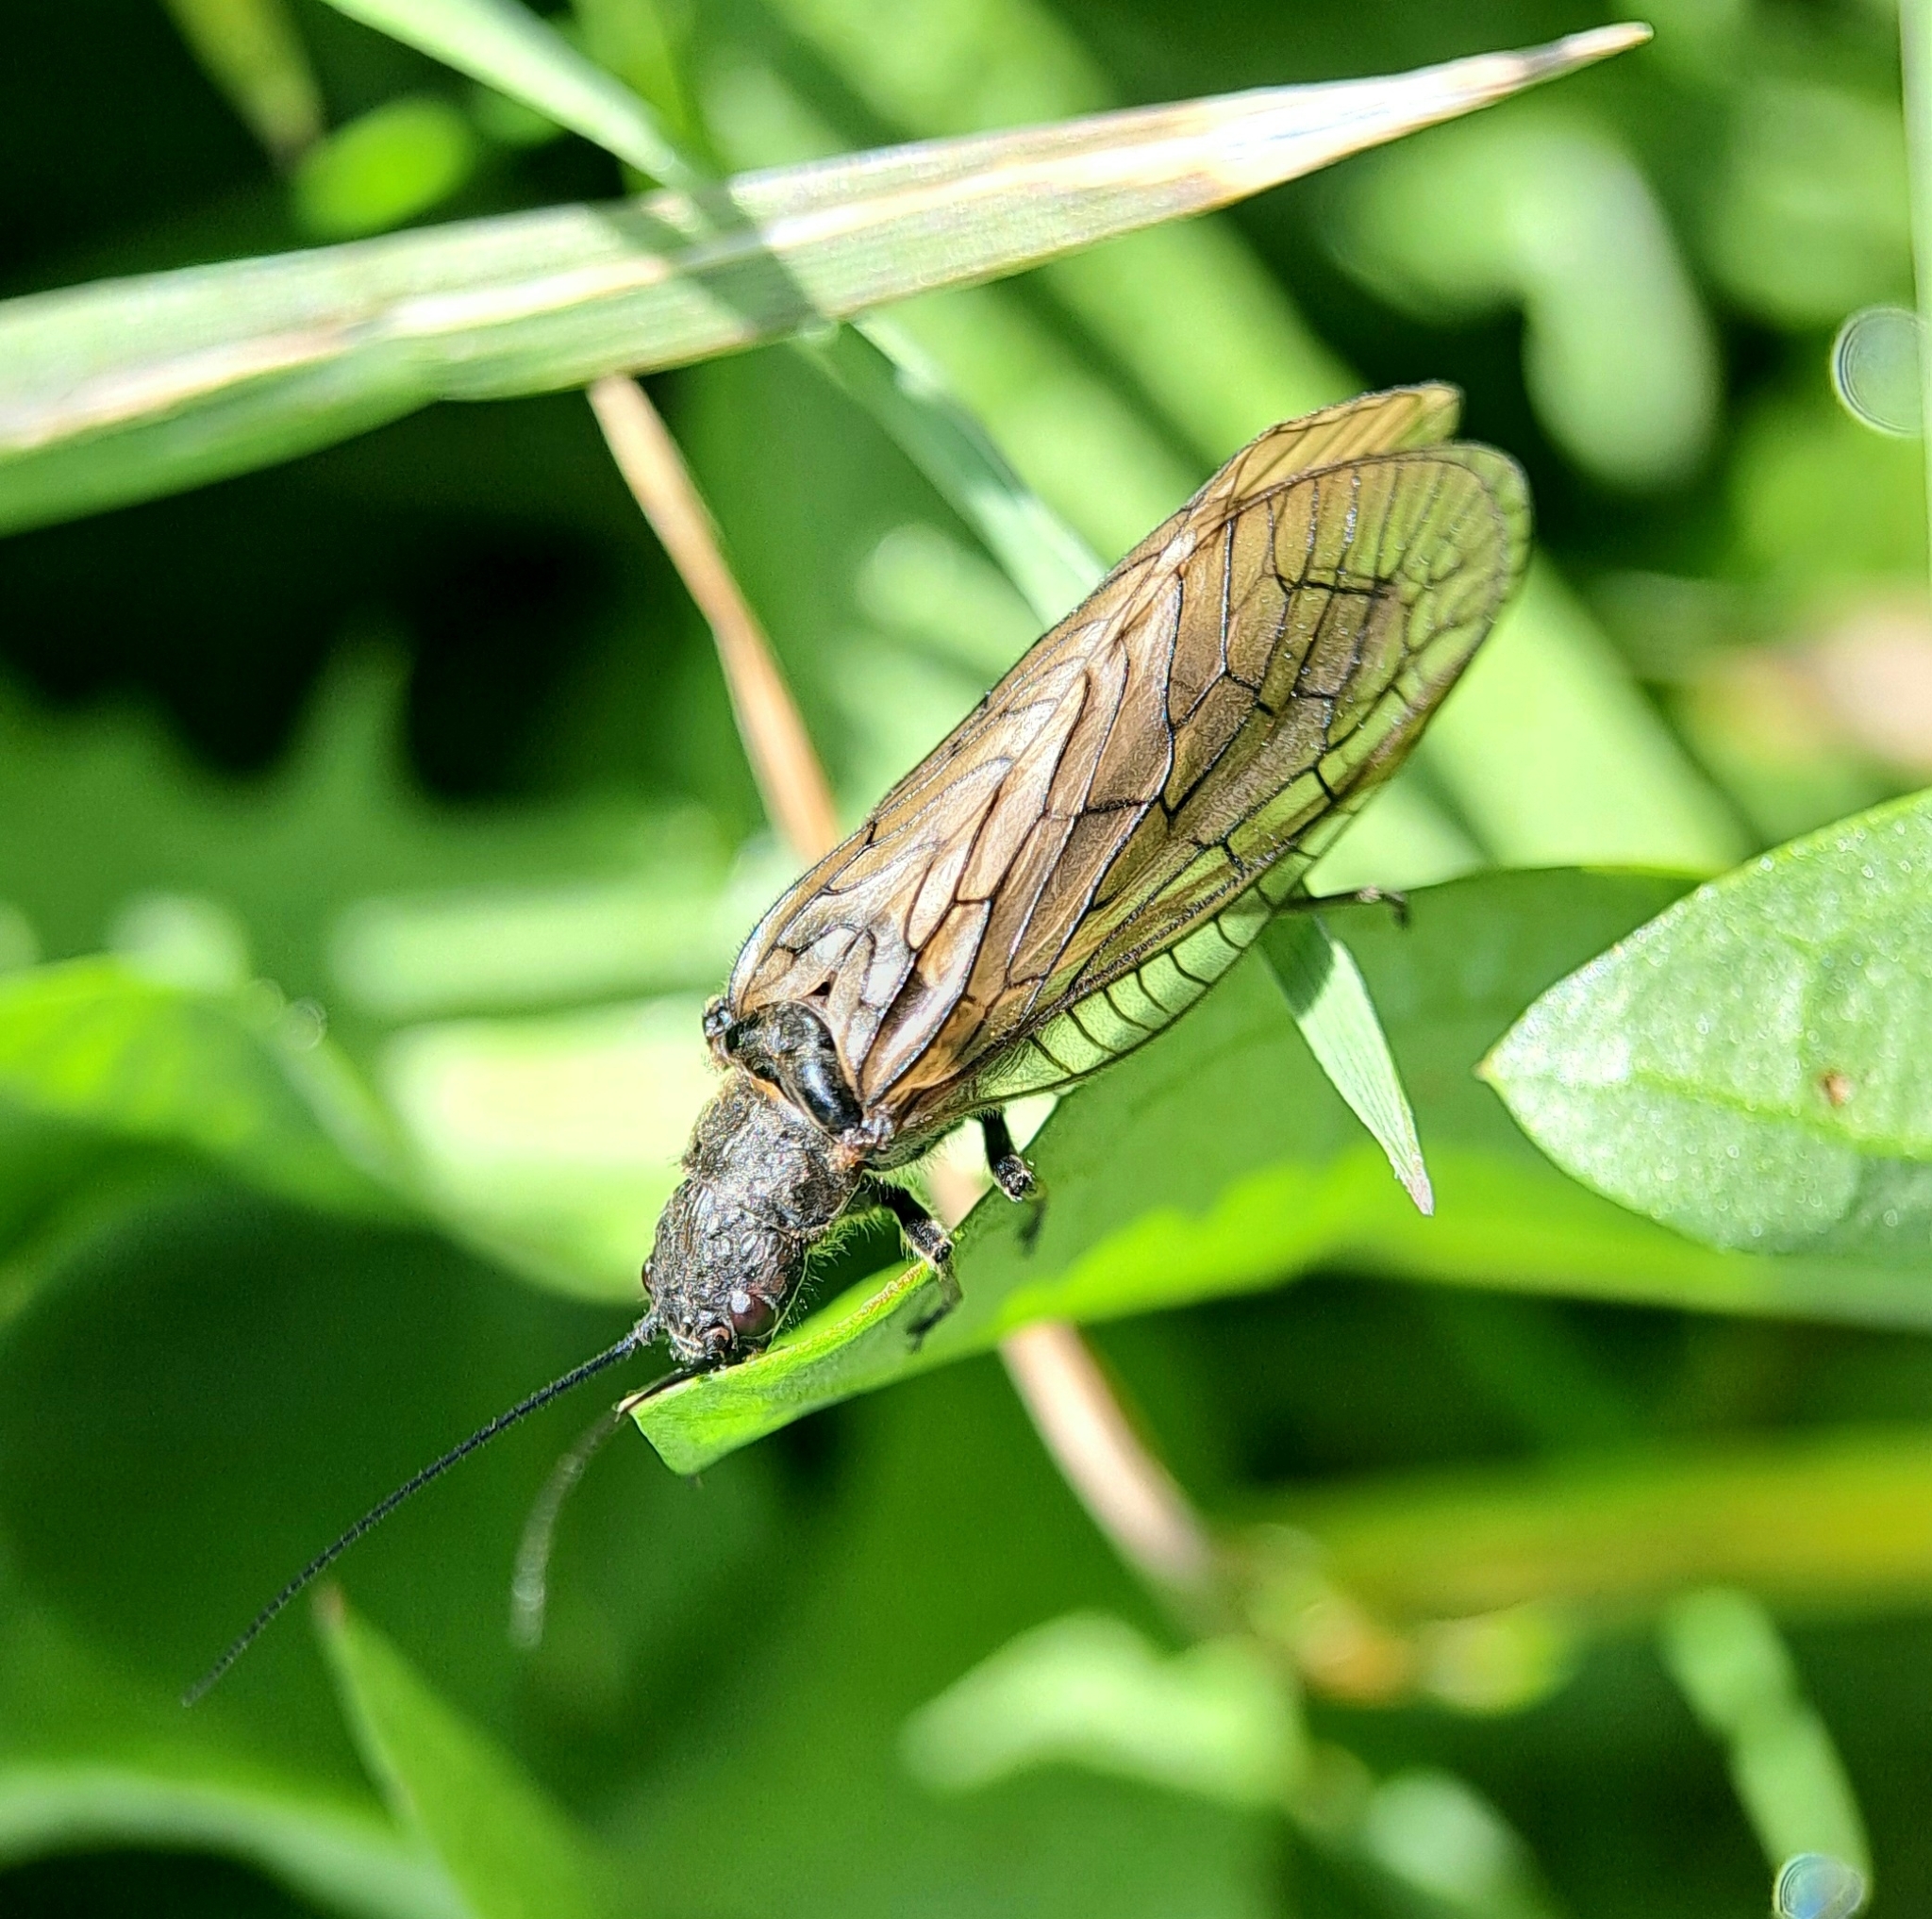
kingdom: Animalia
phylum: Arthropoda
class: Insecta
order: Megaloptera
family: Sialidae
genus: Sialis
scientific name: Sialis
